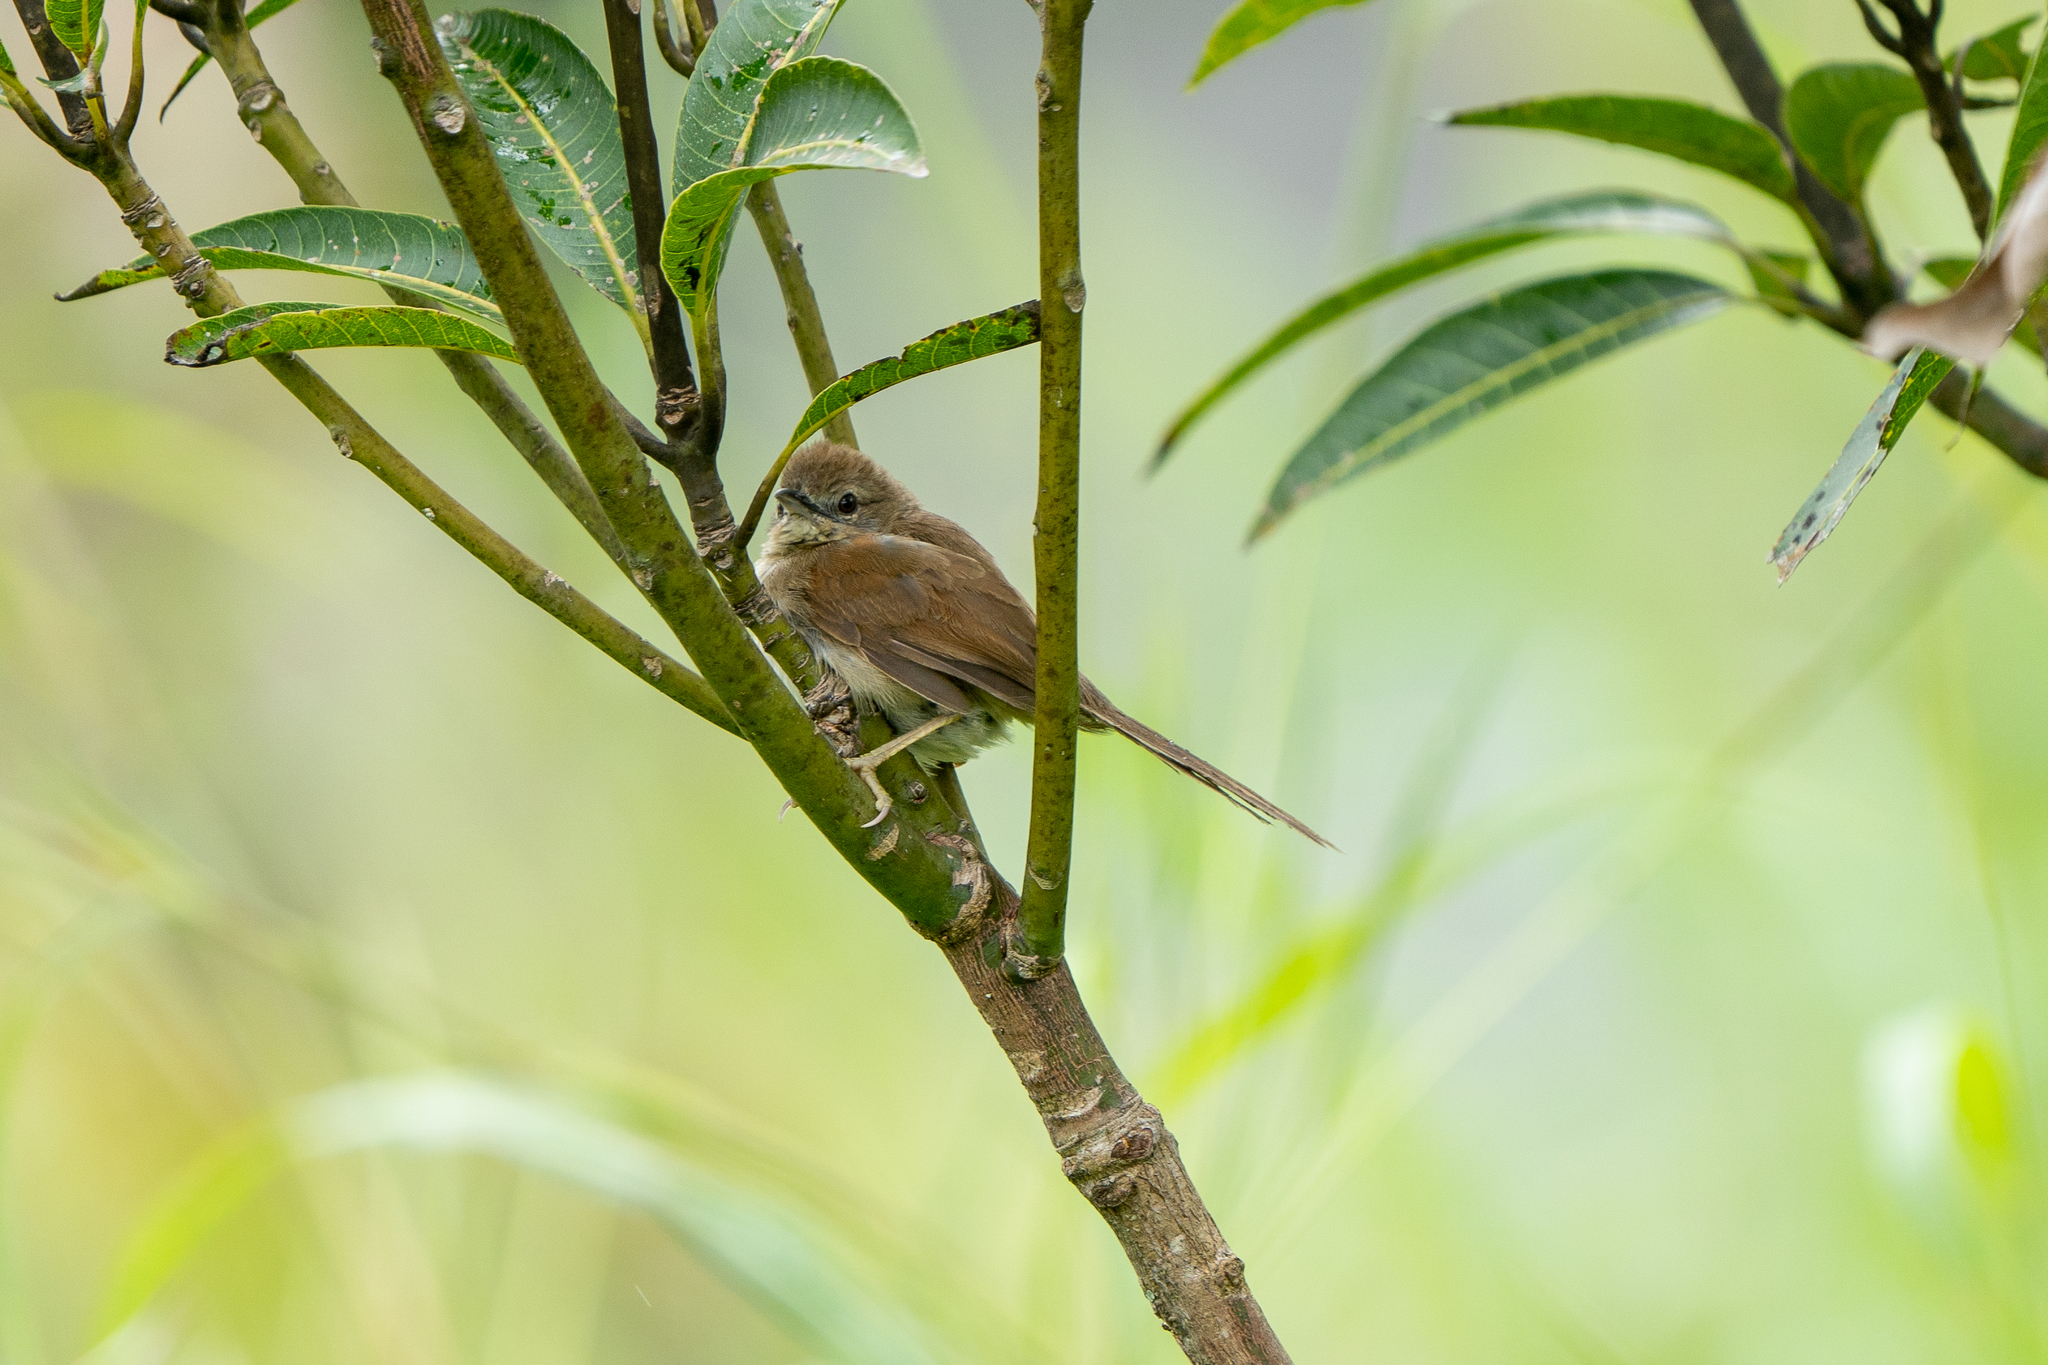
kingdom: Animalia
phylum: Chordata
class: Aves
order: Passeriformes
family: Furnariidae
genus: Synallaxis
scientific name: Synallaxis albescens
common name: Pale-breasted spinetail
